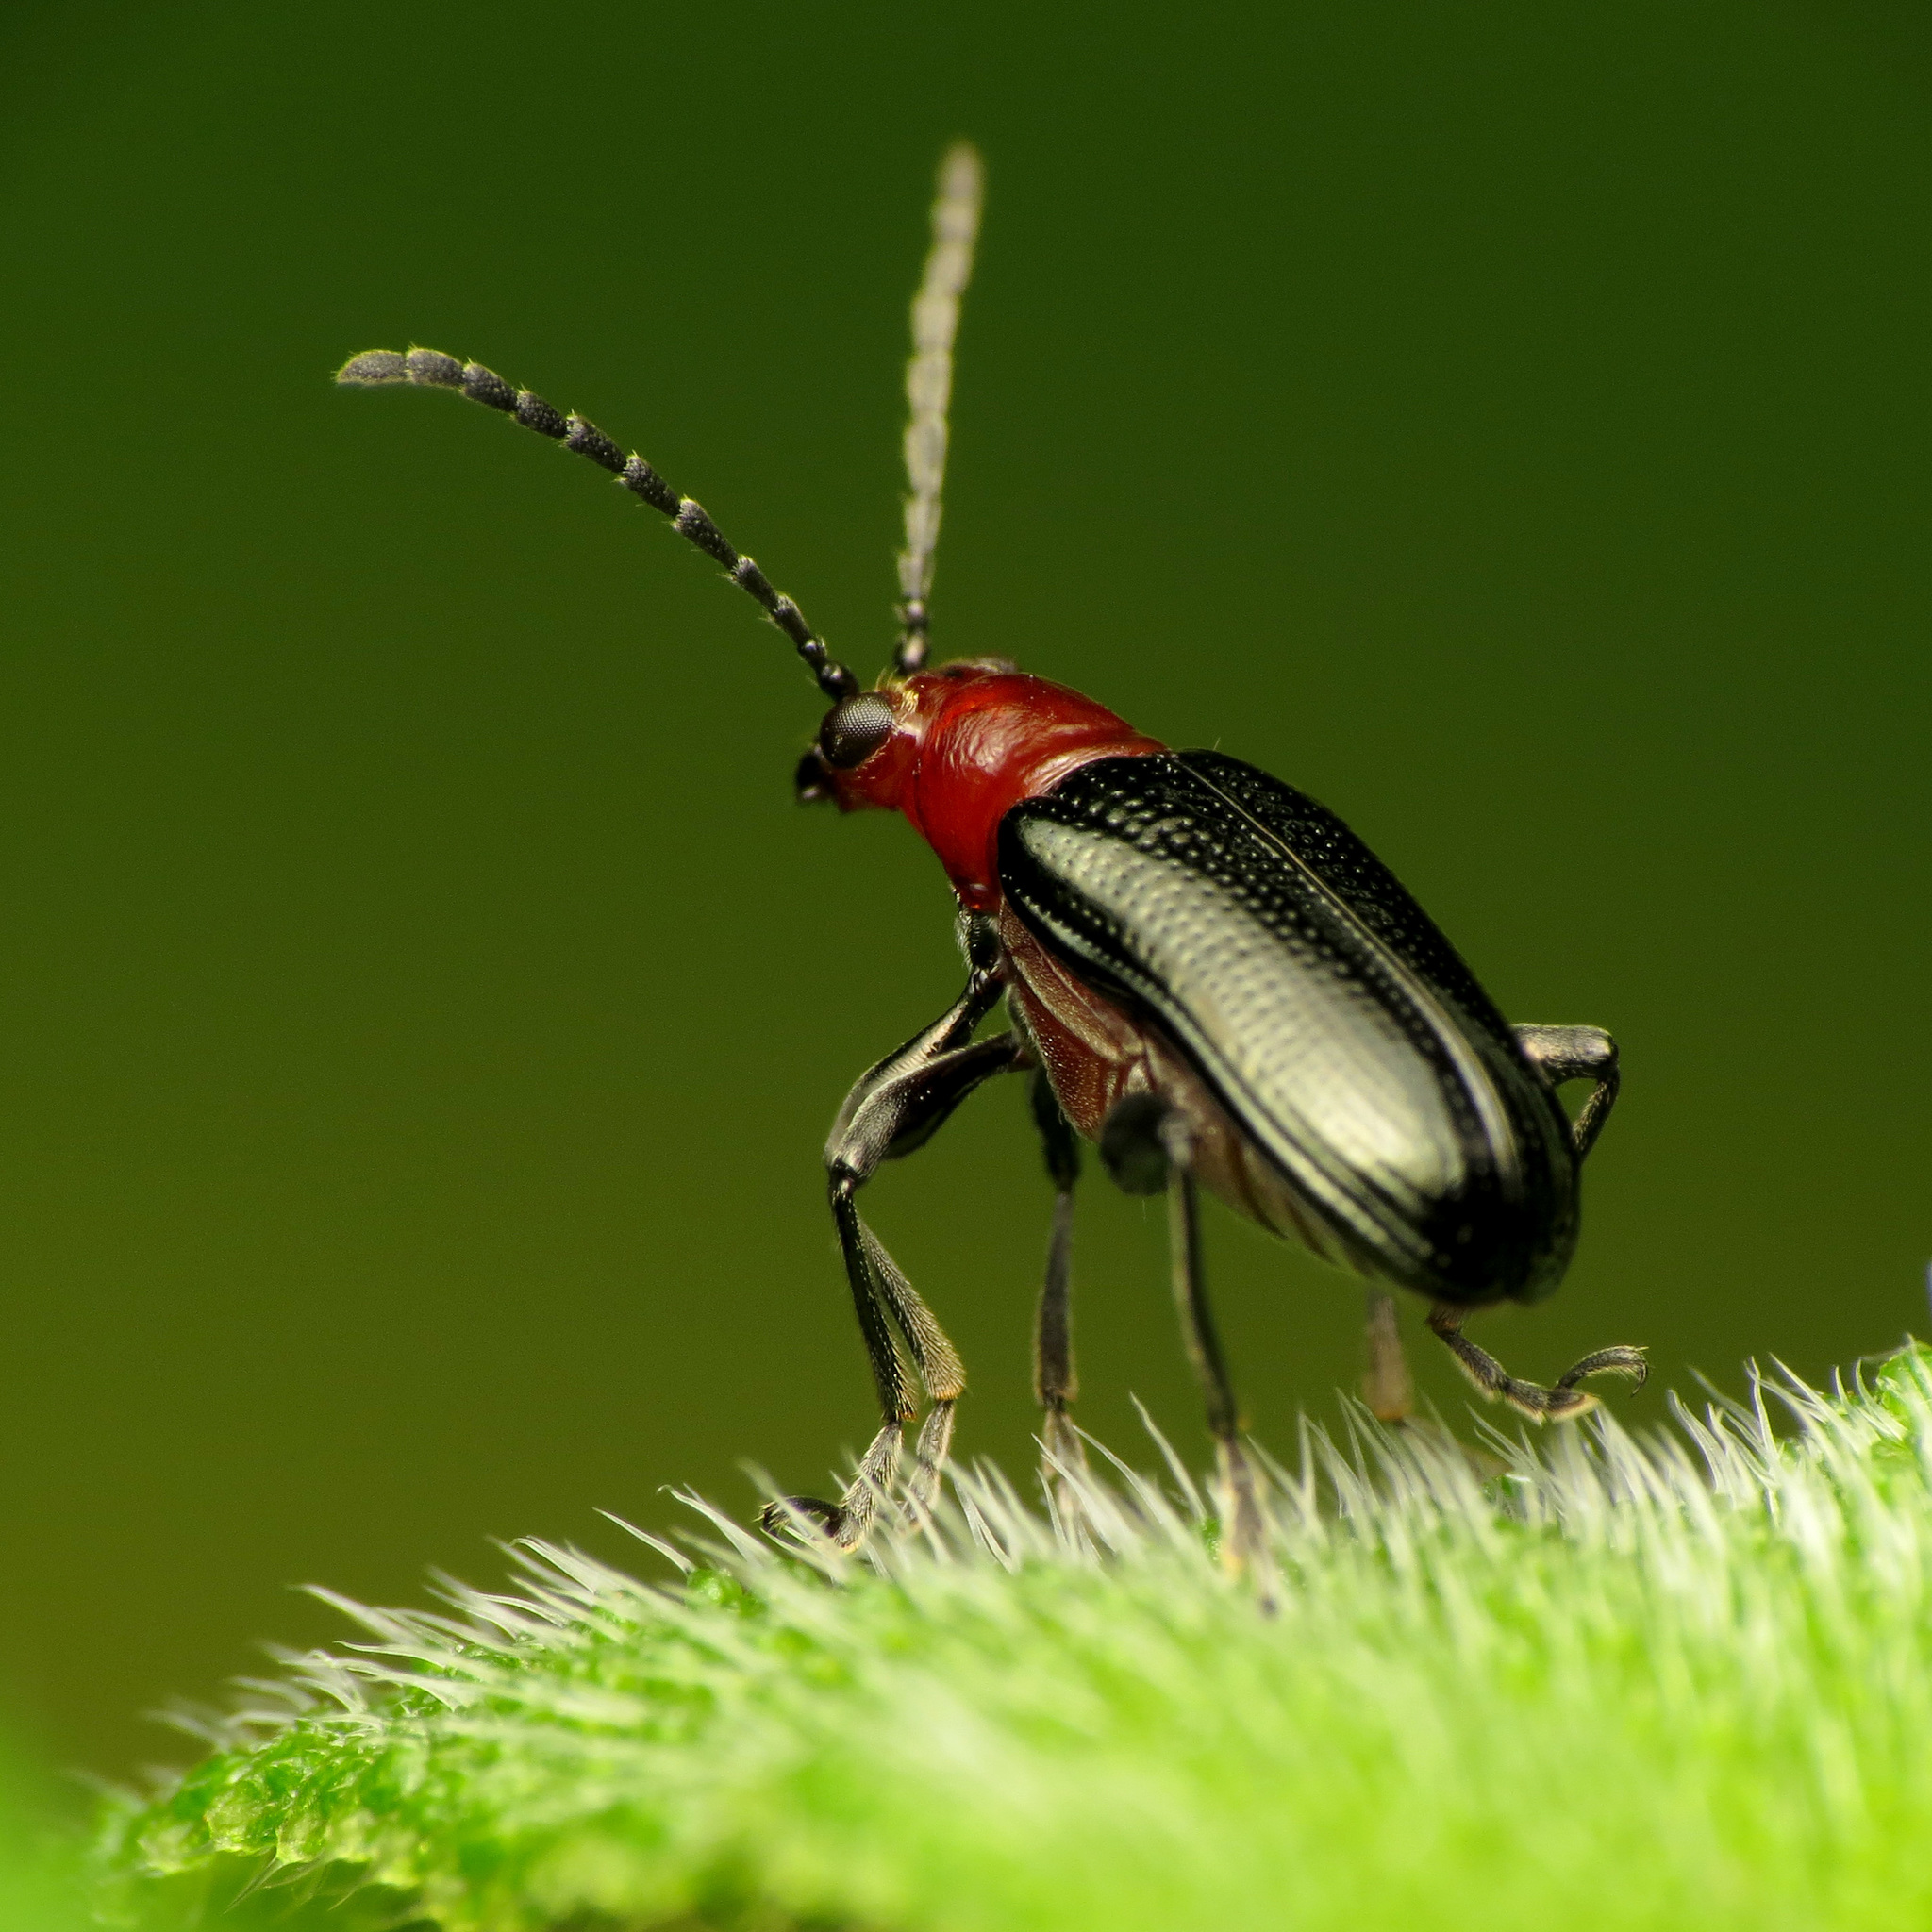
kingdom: Animalia
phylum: Arthropoda
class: Insecta
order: Coleoptera
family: Chrysomelidae
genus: Oulema
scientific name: Oulema sayi
